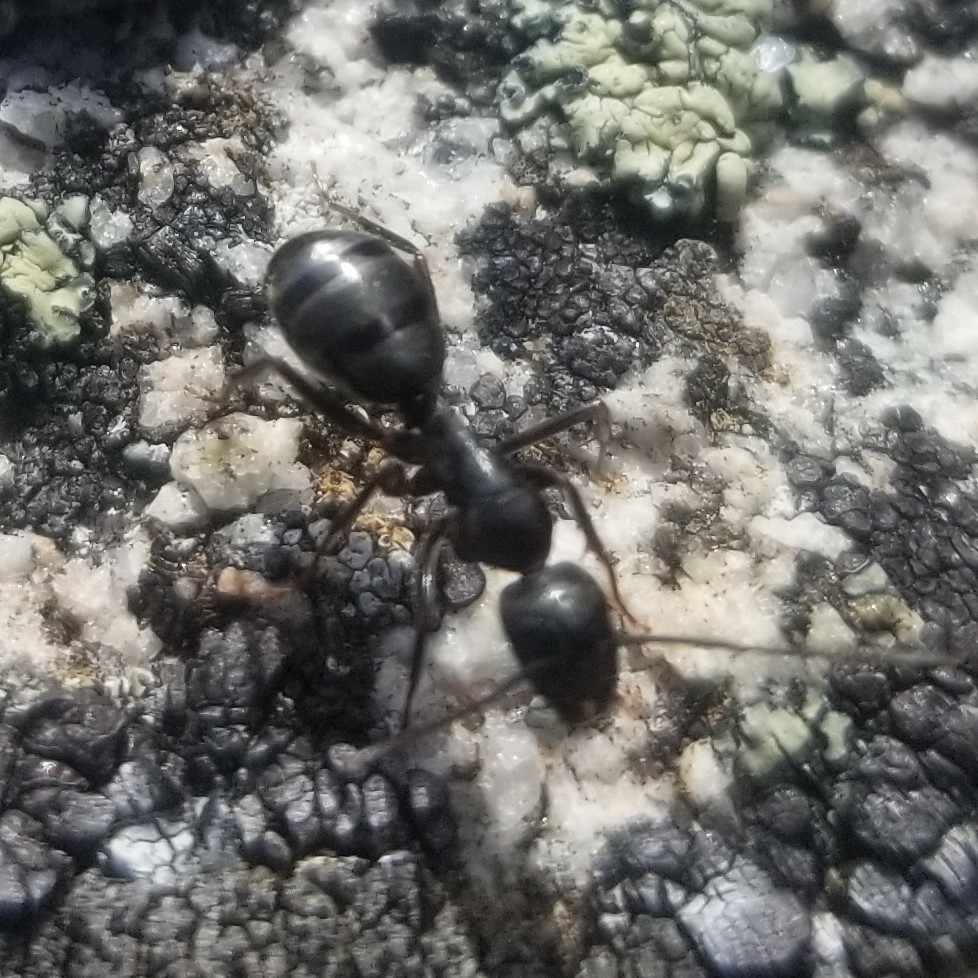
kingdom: Animalia
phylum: Arthropoda
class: Insecta
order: Hymenoptera
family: Formicidae
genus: Camponotus
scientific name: Camponotus vicinus
